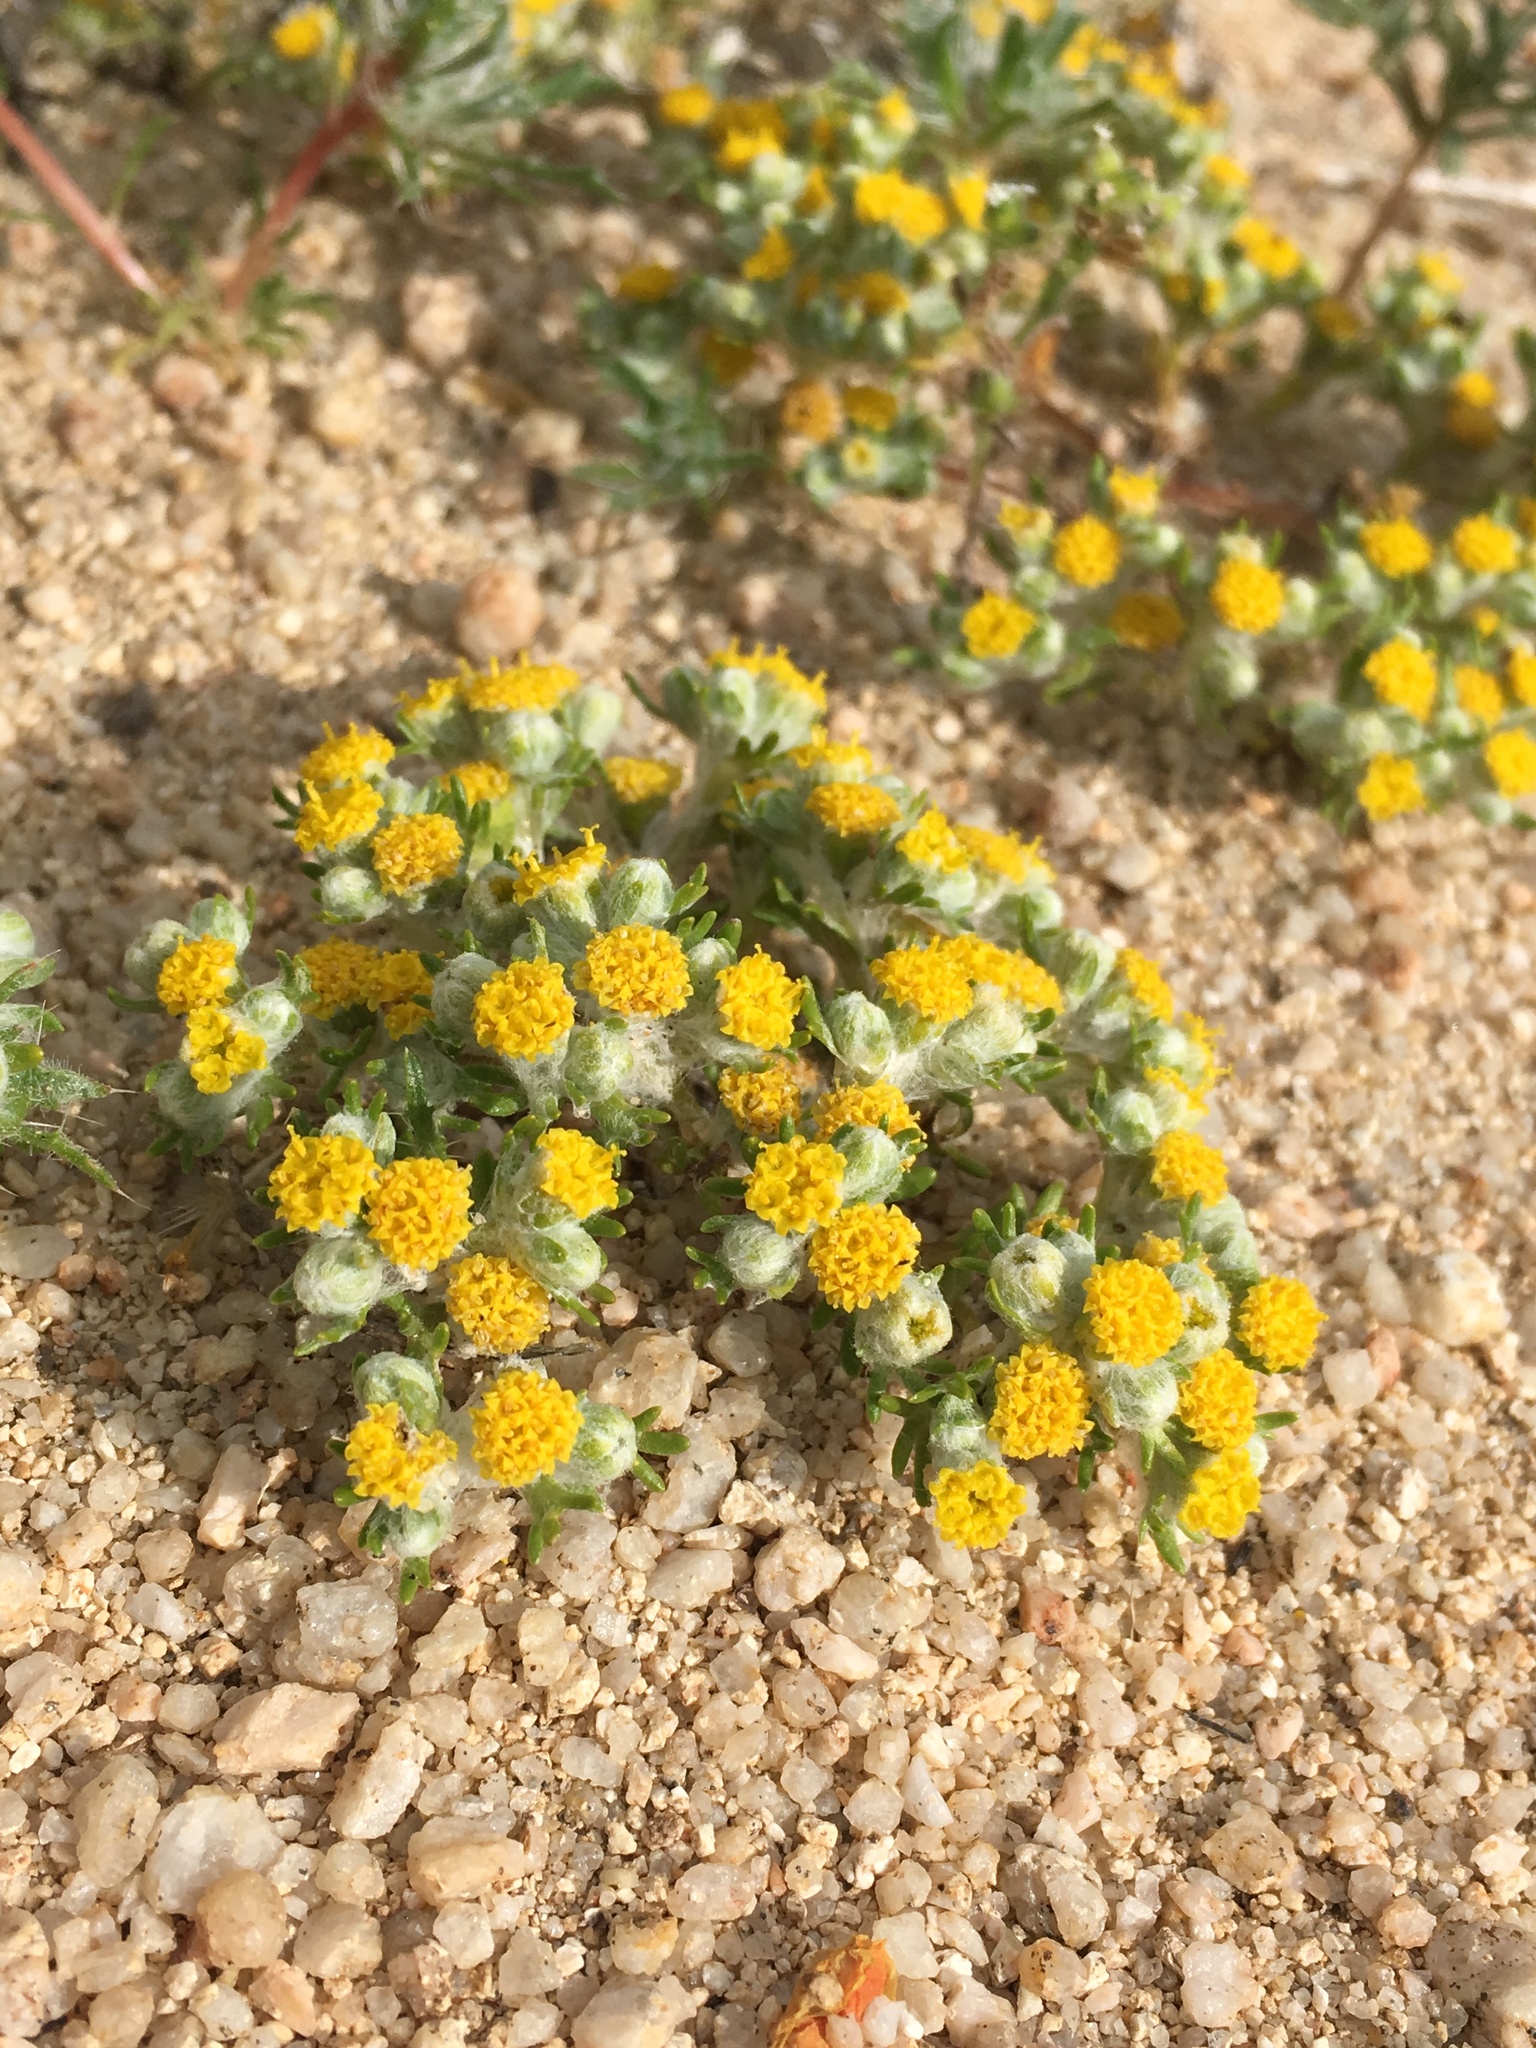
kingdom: Plantae
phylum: Tracheophyta
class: Magnoliopsida
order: Asterales
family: Asteraceae
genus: Eriophyllum
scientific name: Eriophyllum pringlei
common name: Pringle's woolly-sunflower
